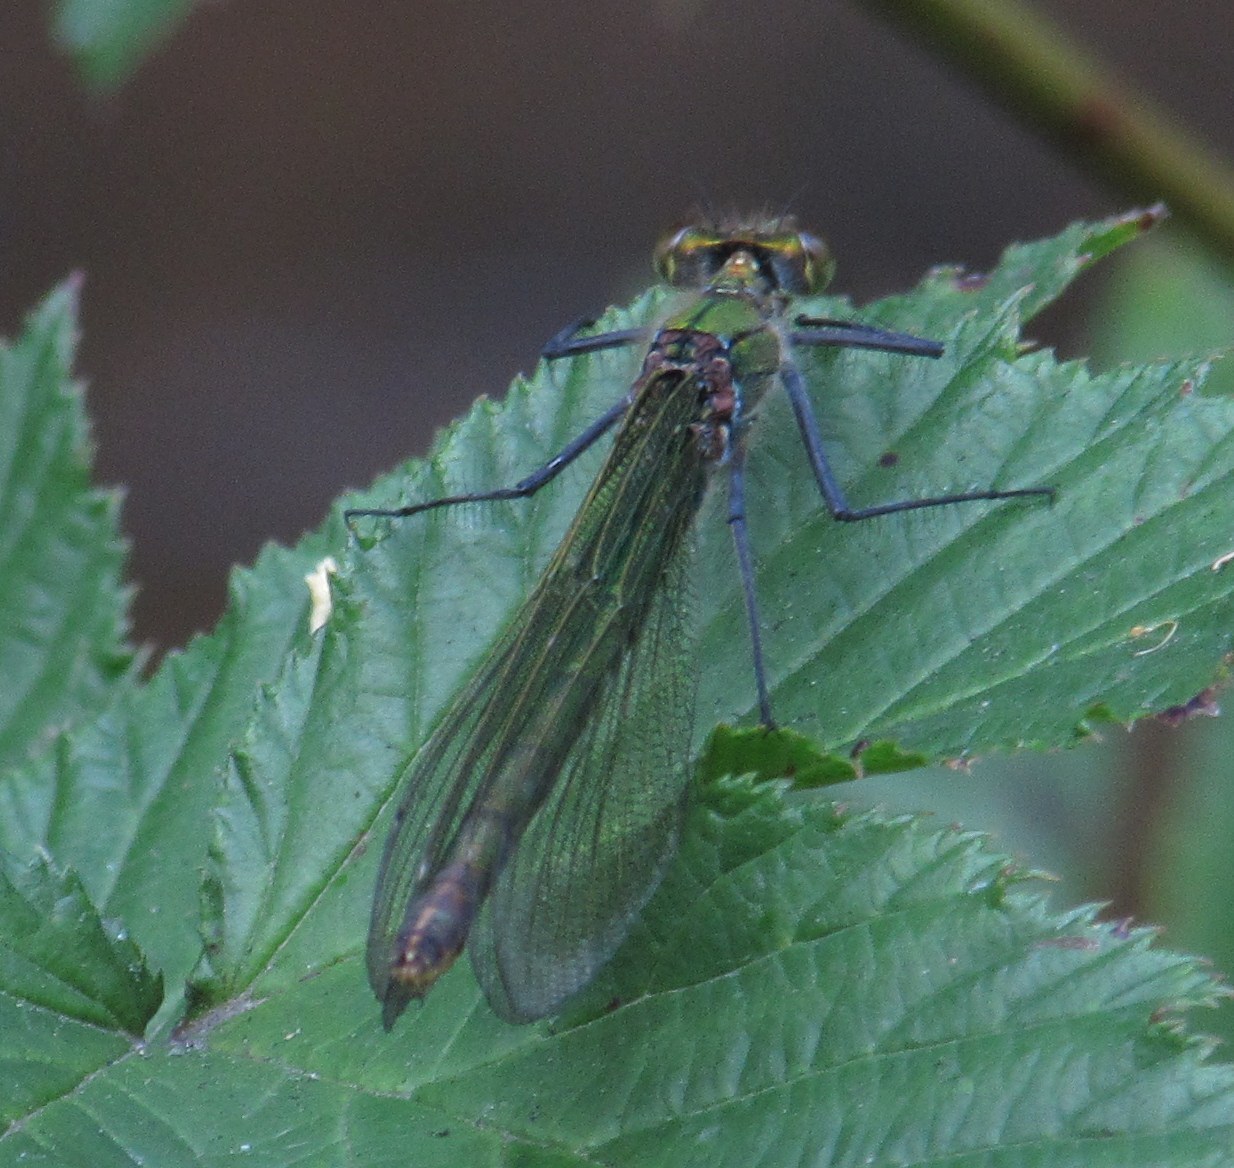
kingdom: Animalia
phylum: Arthropoda
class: Insecta
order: Odonata
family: Calopterygidae
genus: Calopteryx
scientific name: Calopteryx splendens
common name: Banded demoiselle
